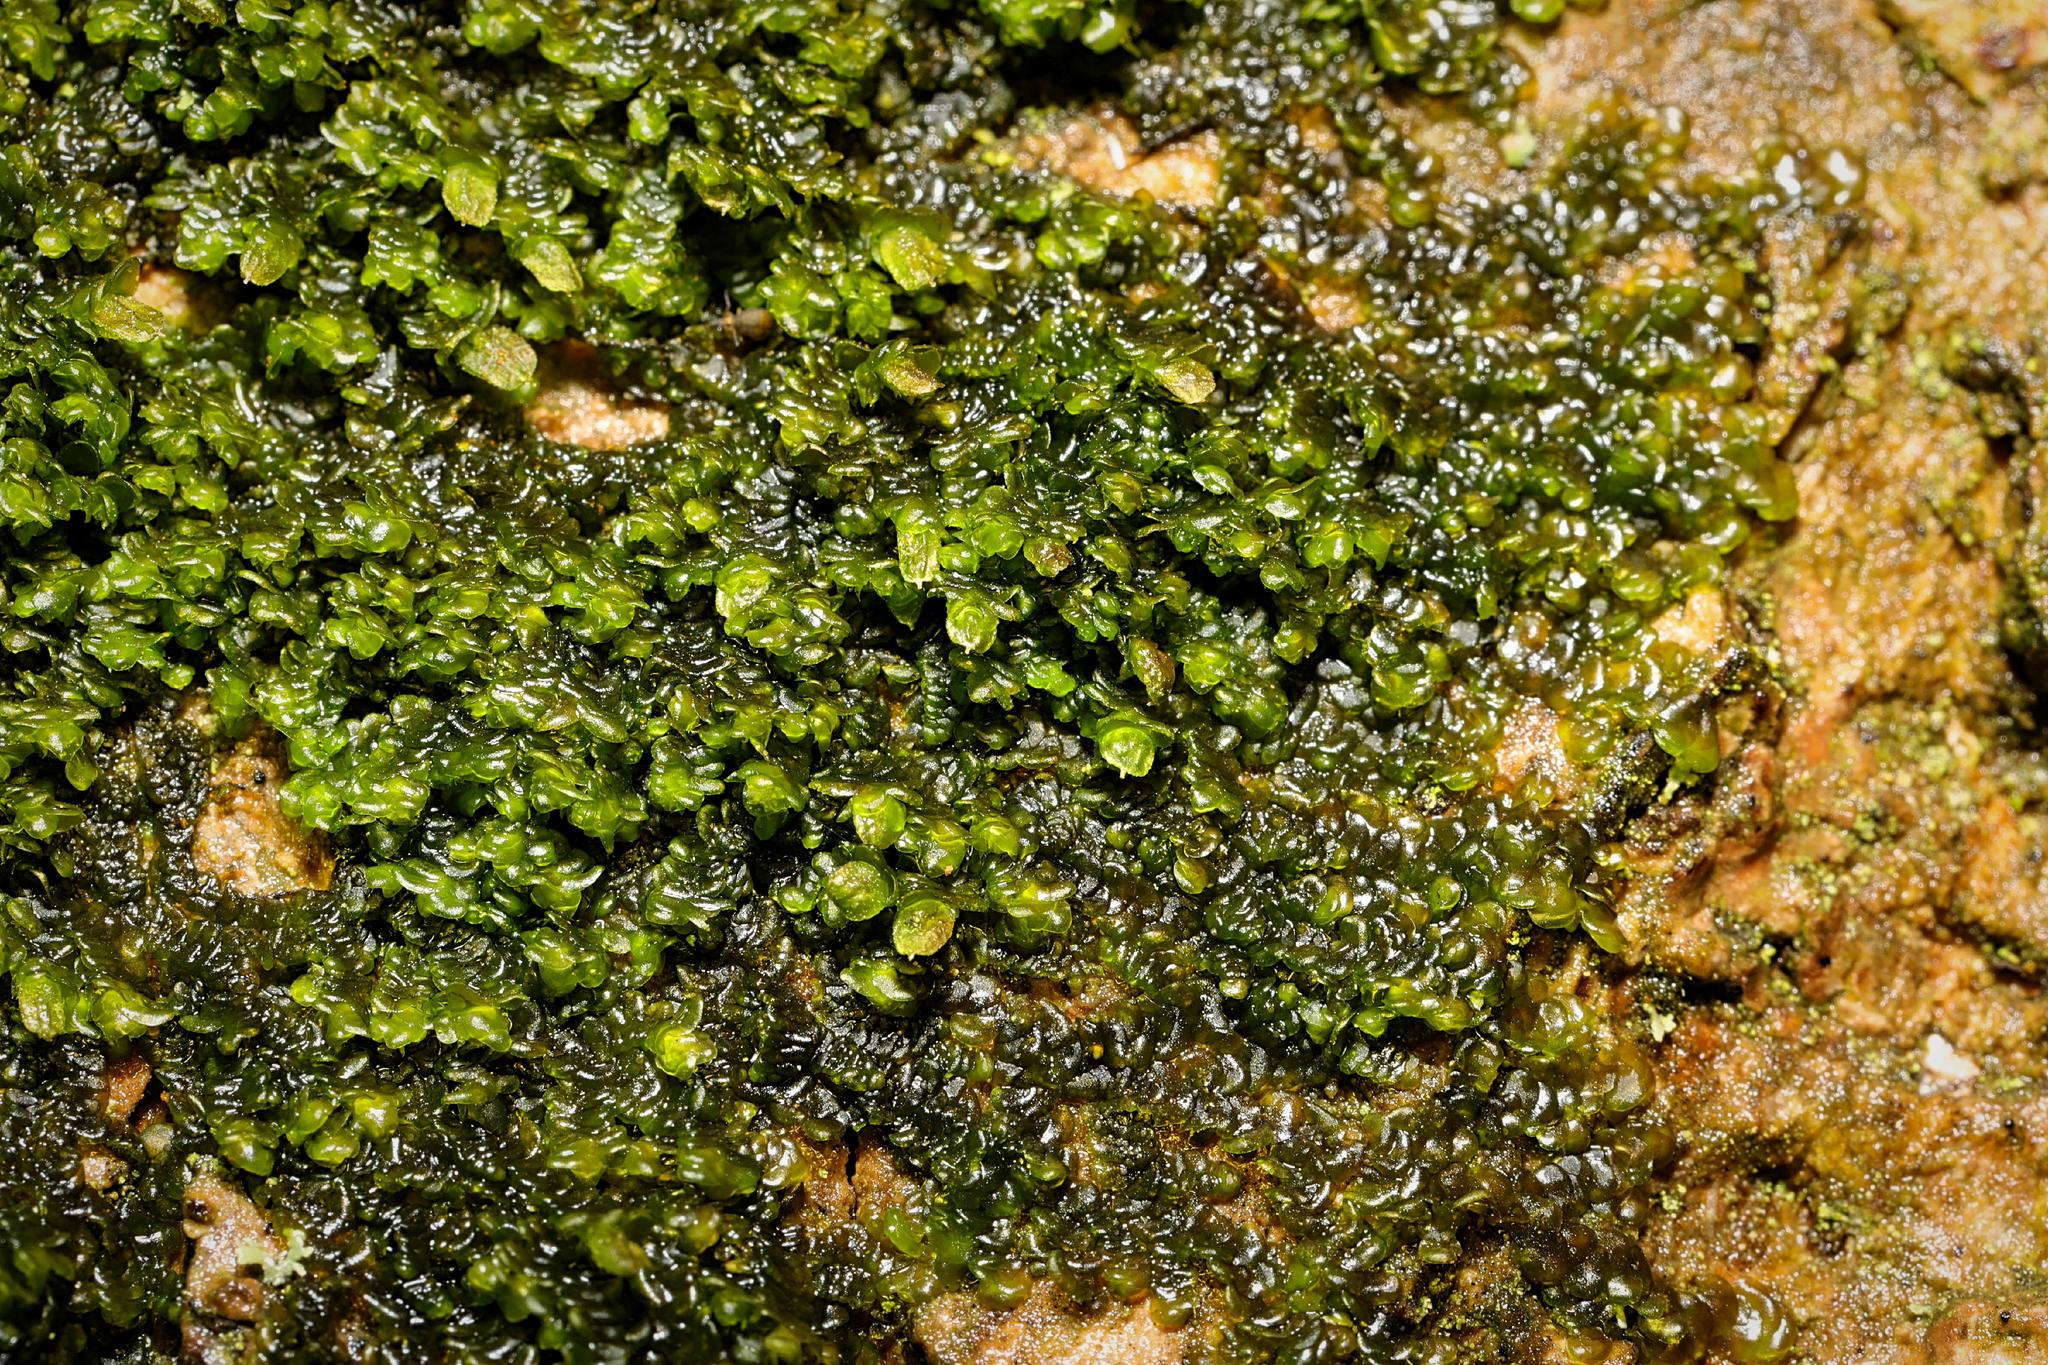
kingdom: Plantae
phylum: Marchantiophyta
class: Jungermanniopsida
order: Porellales
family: Frullaniaceae
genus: Frullania
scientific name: Frullania dilatata
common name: Dilated scalewort
